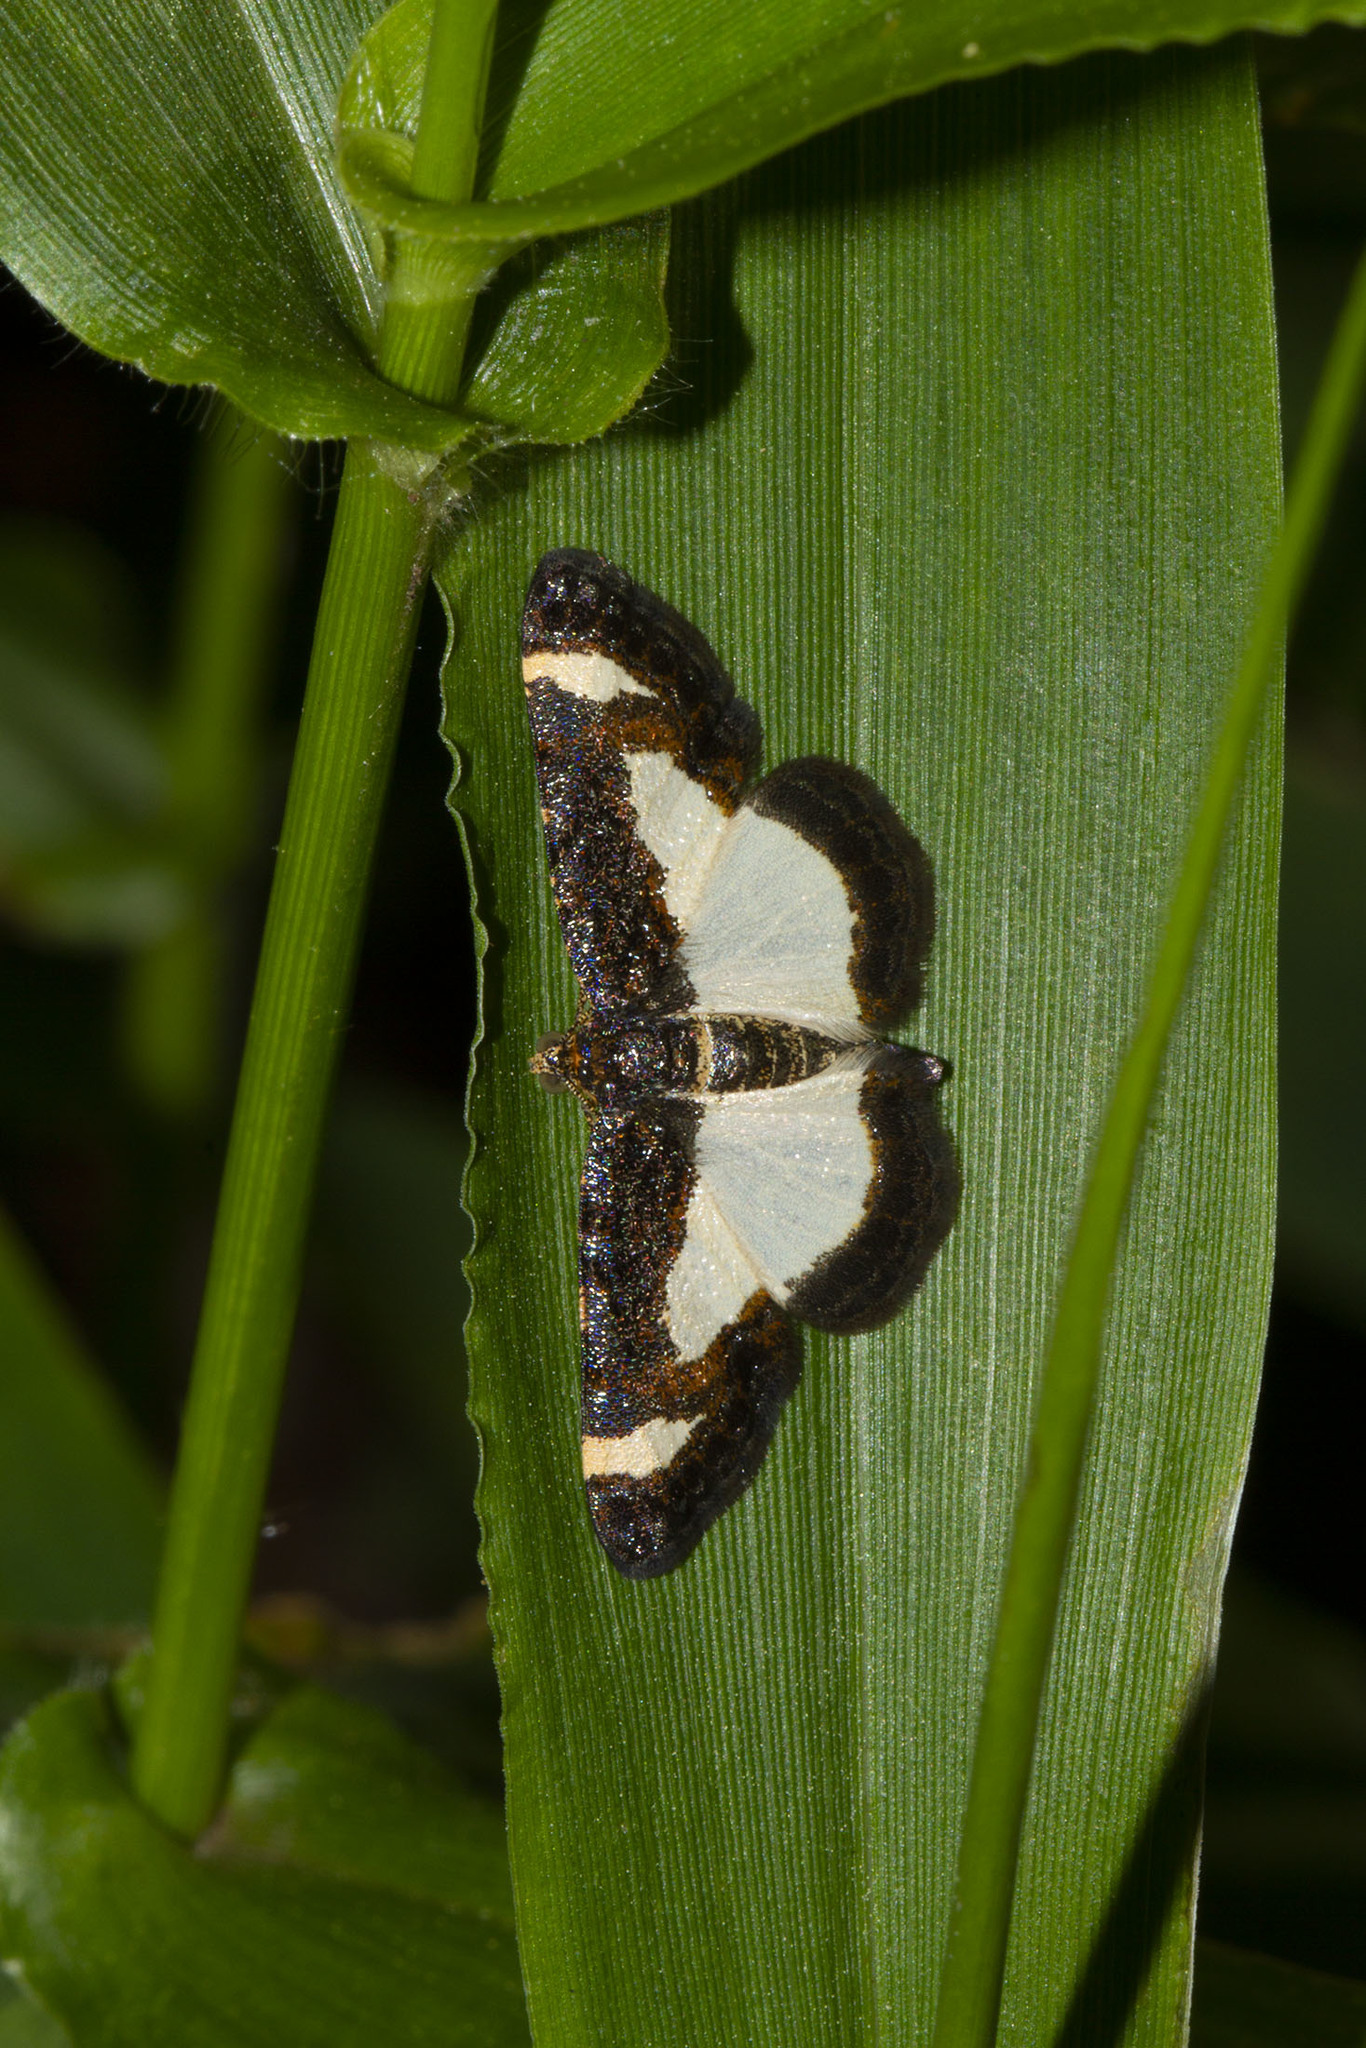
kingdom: Animalia
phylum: Arthropoda
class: Insecta
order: Lepidoptera
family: Geometridae
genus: Heliomata
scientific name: Heliomata cycladata
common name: Common spring moth
